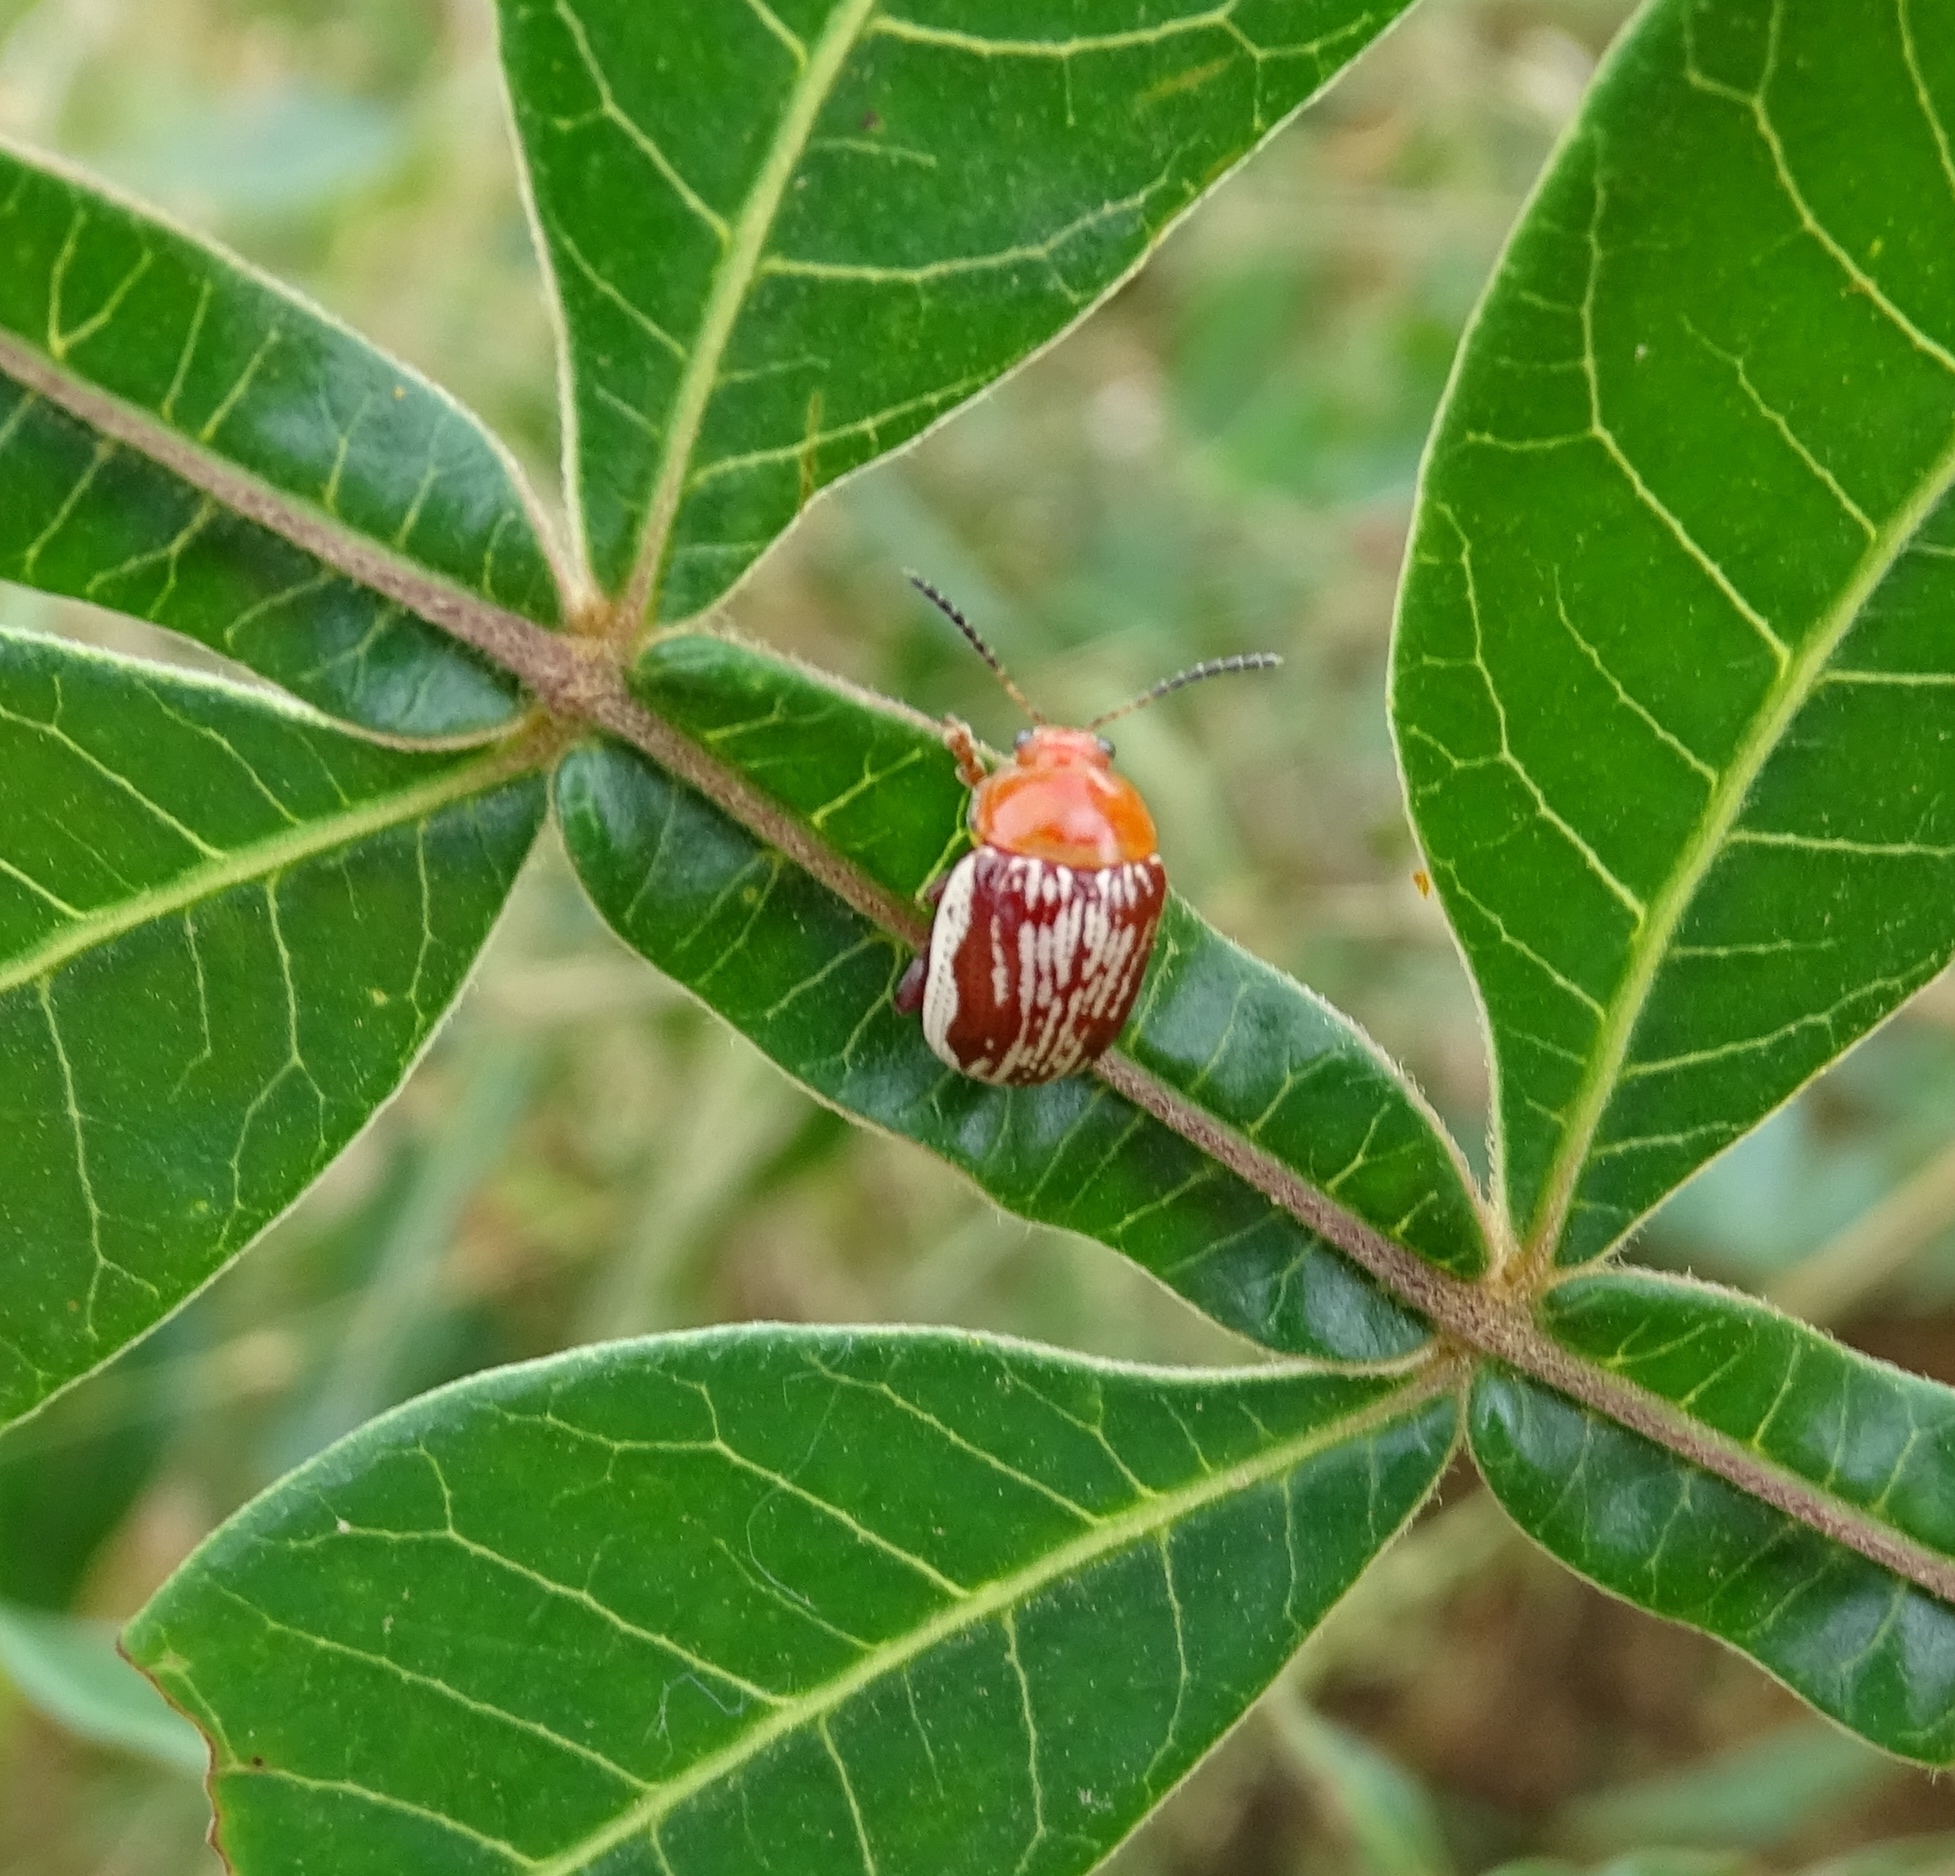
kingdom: Animalia
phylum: Arthropoda
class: Insecta
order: Coleoptera
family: Chrysomelidae
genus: Blepharida
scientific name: Blepharida rhois
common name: Sumac flea beetle
